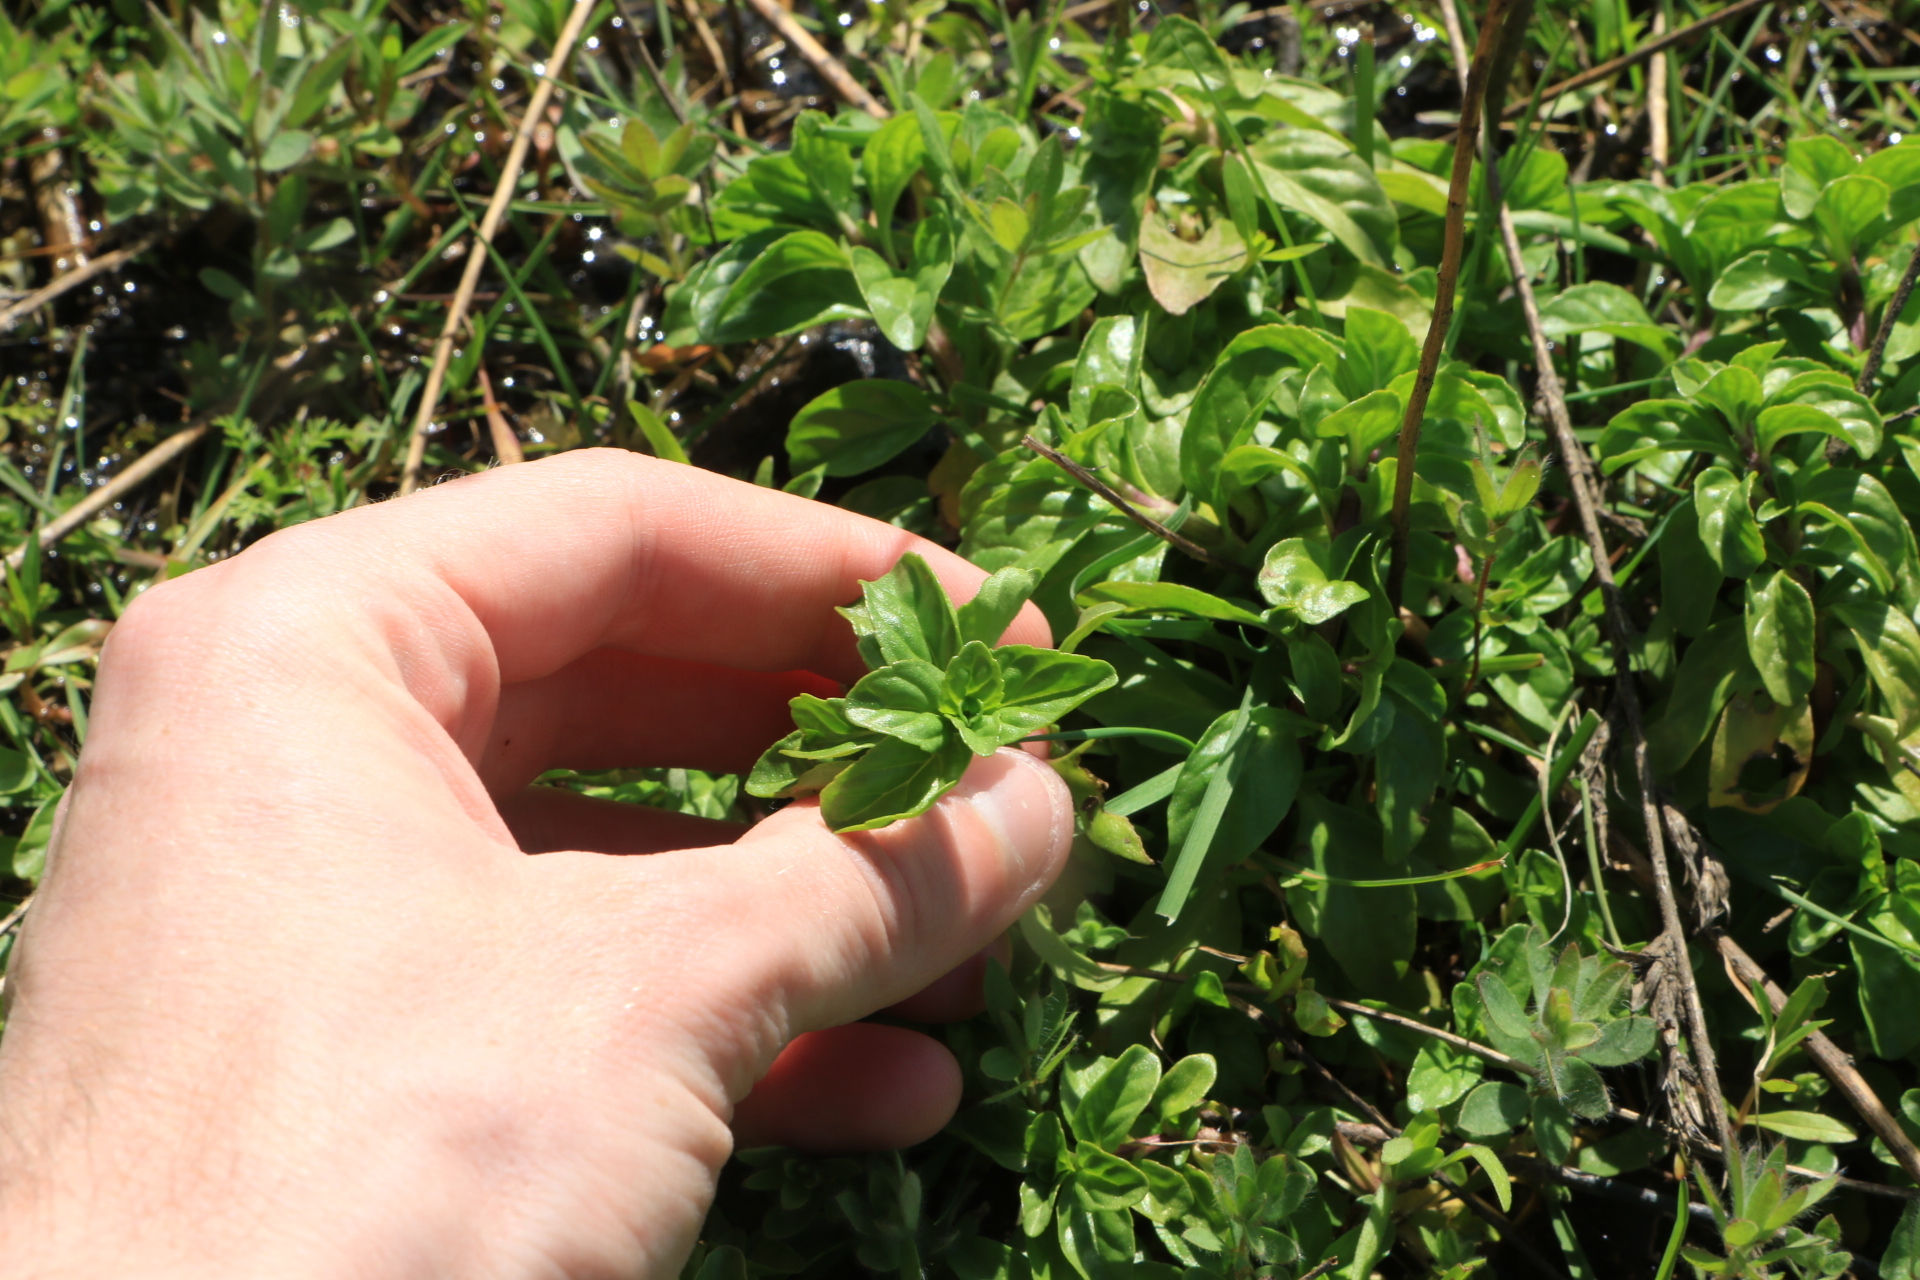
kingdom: Plantae
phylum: Tracheophyta
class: Magnoliopsida
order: Lamiales
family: Lamiaceae
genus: Mentha
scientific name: Mentha pulegium
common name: Pennyroyal
